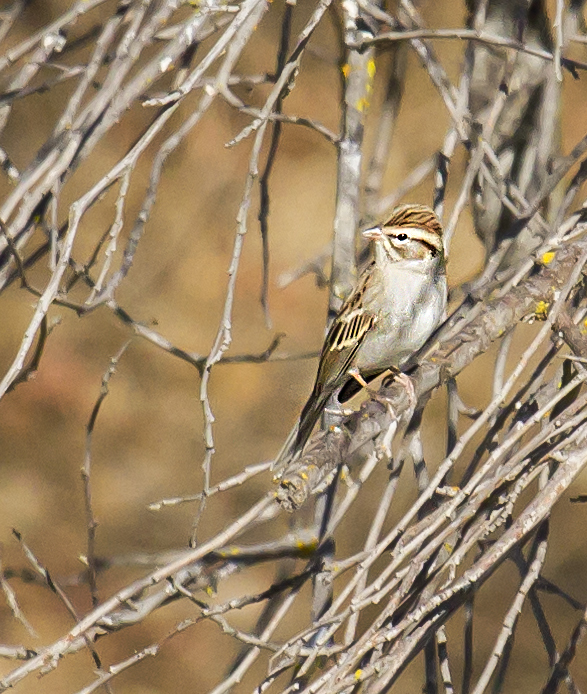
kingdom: Animalia
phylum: Chordata
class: Aves
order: Passeriformes
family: Passerellidae
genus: Spizella
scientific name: Spizella passerina
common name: Chipping sparrow
